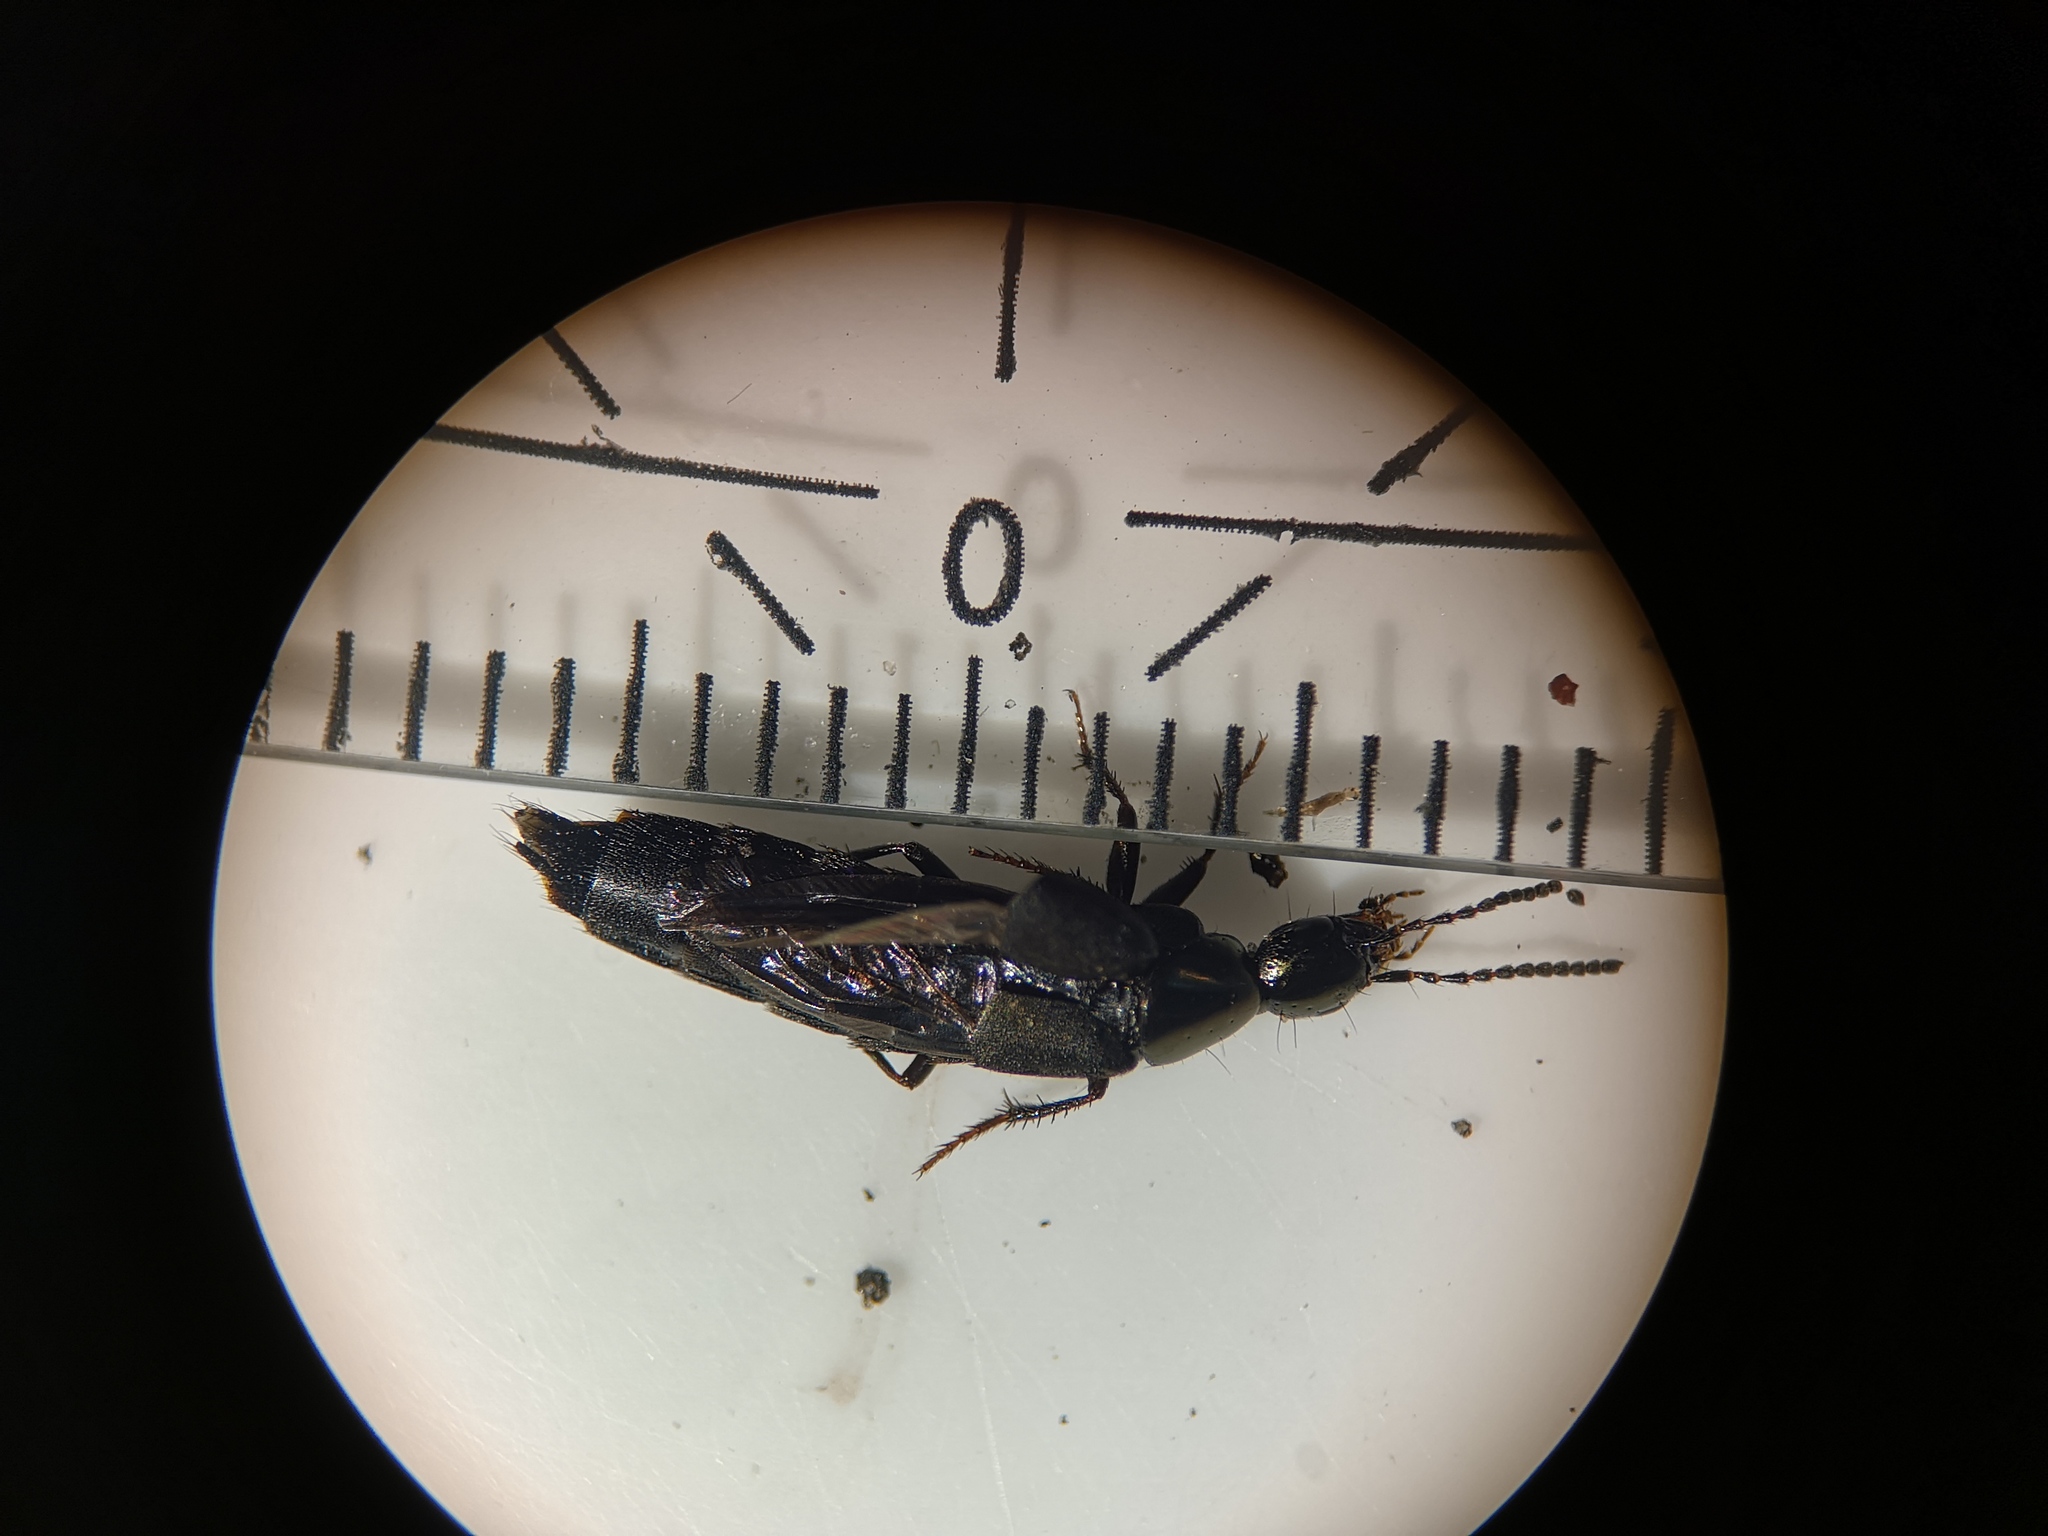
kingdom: Animalia
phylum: Arthropoda
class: Insecta
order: Coleoptera
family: Staphylinidae
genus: Philonthus
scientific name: Philonthus decorus
